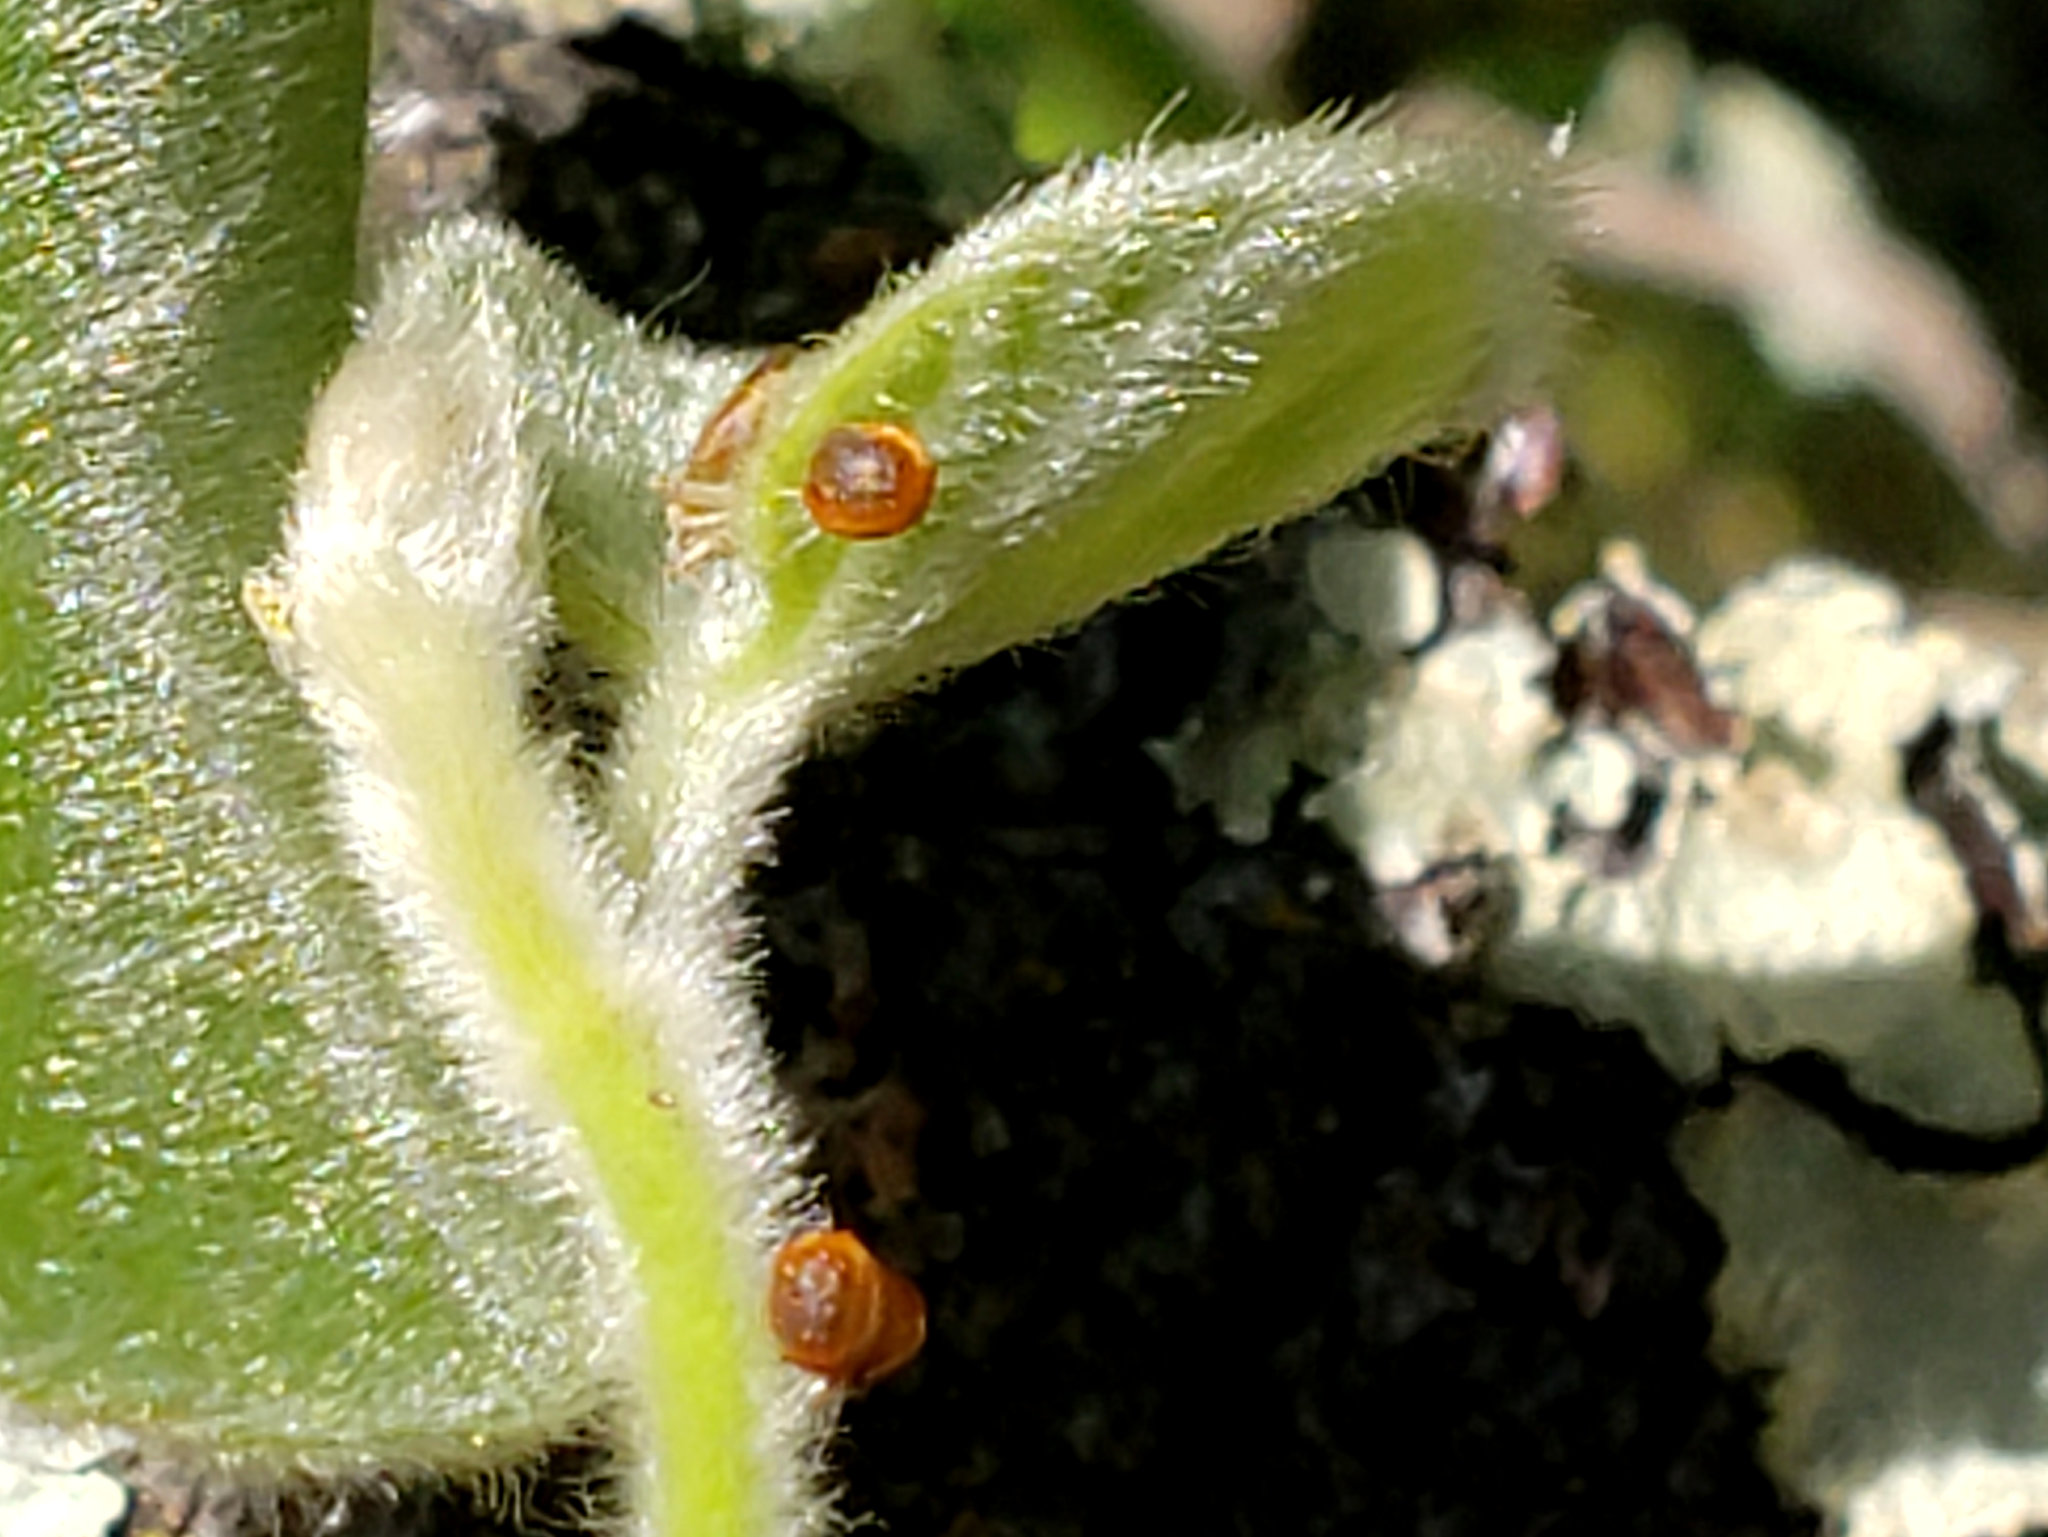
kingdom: Animalia
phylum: Arthropoda
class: Insecta
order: Lepidoptera
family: Papilionidae
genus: Battus
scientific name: Battus philenor
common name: Pipevine swallowtail
